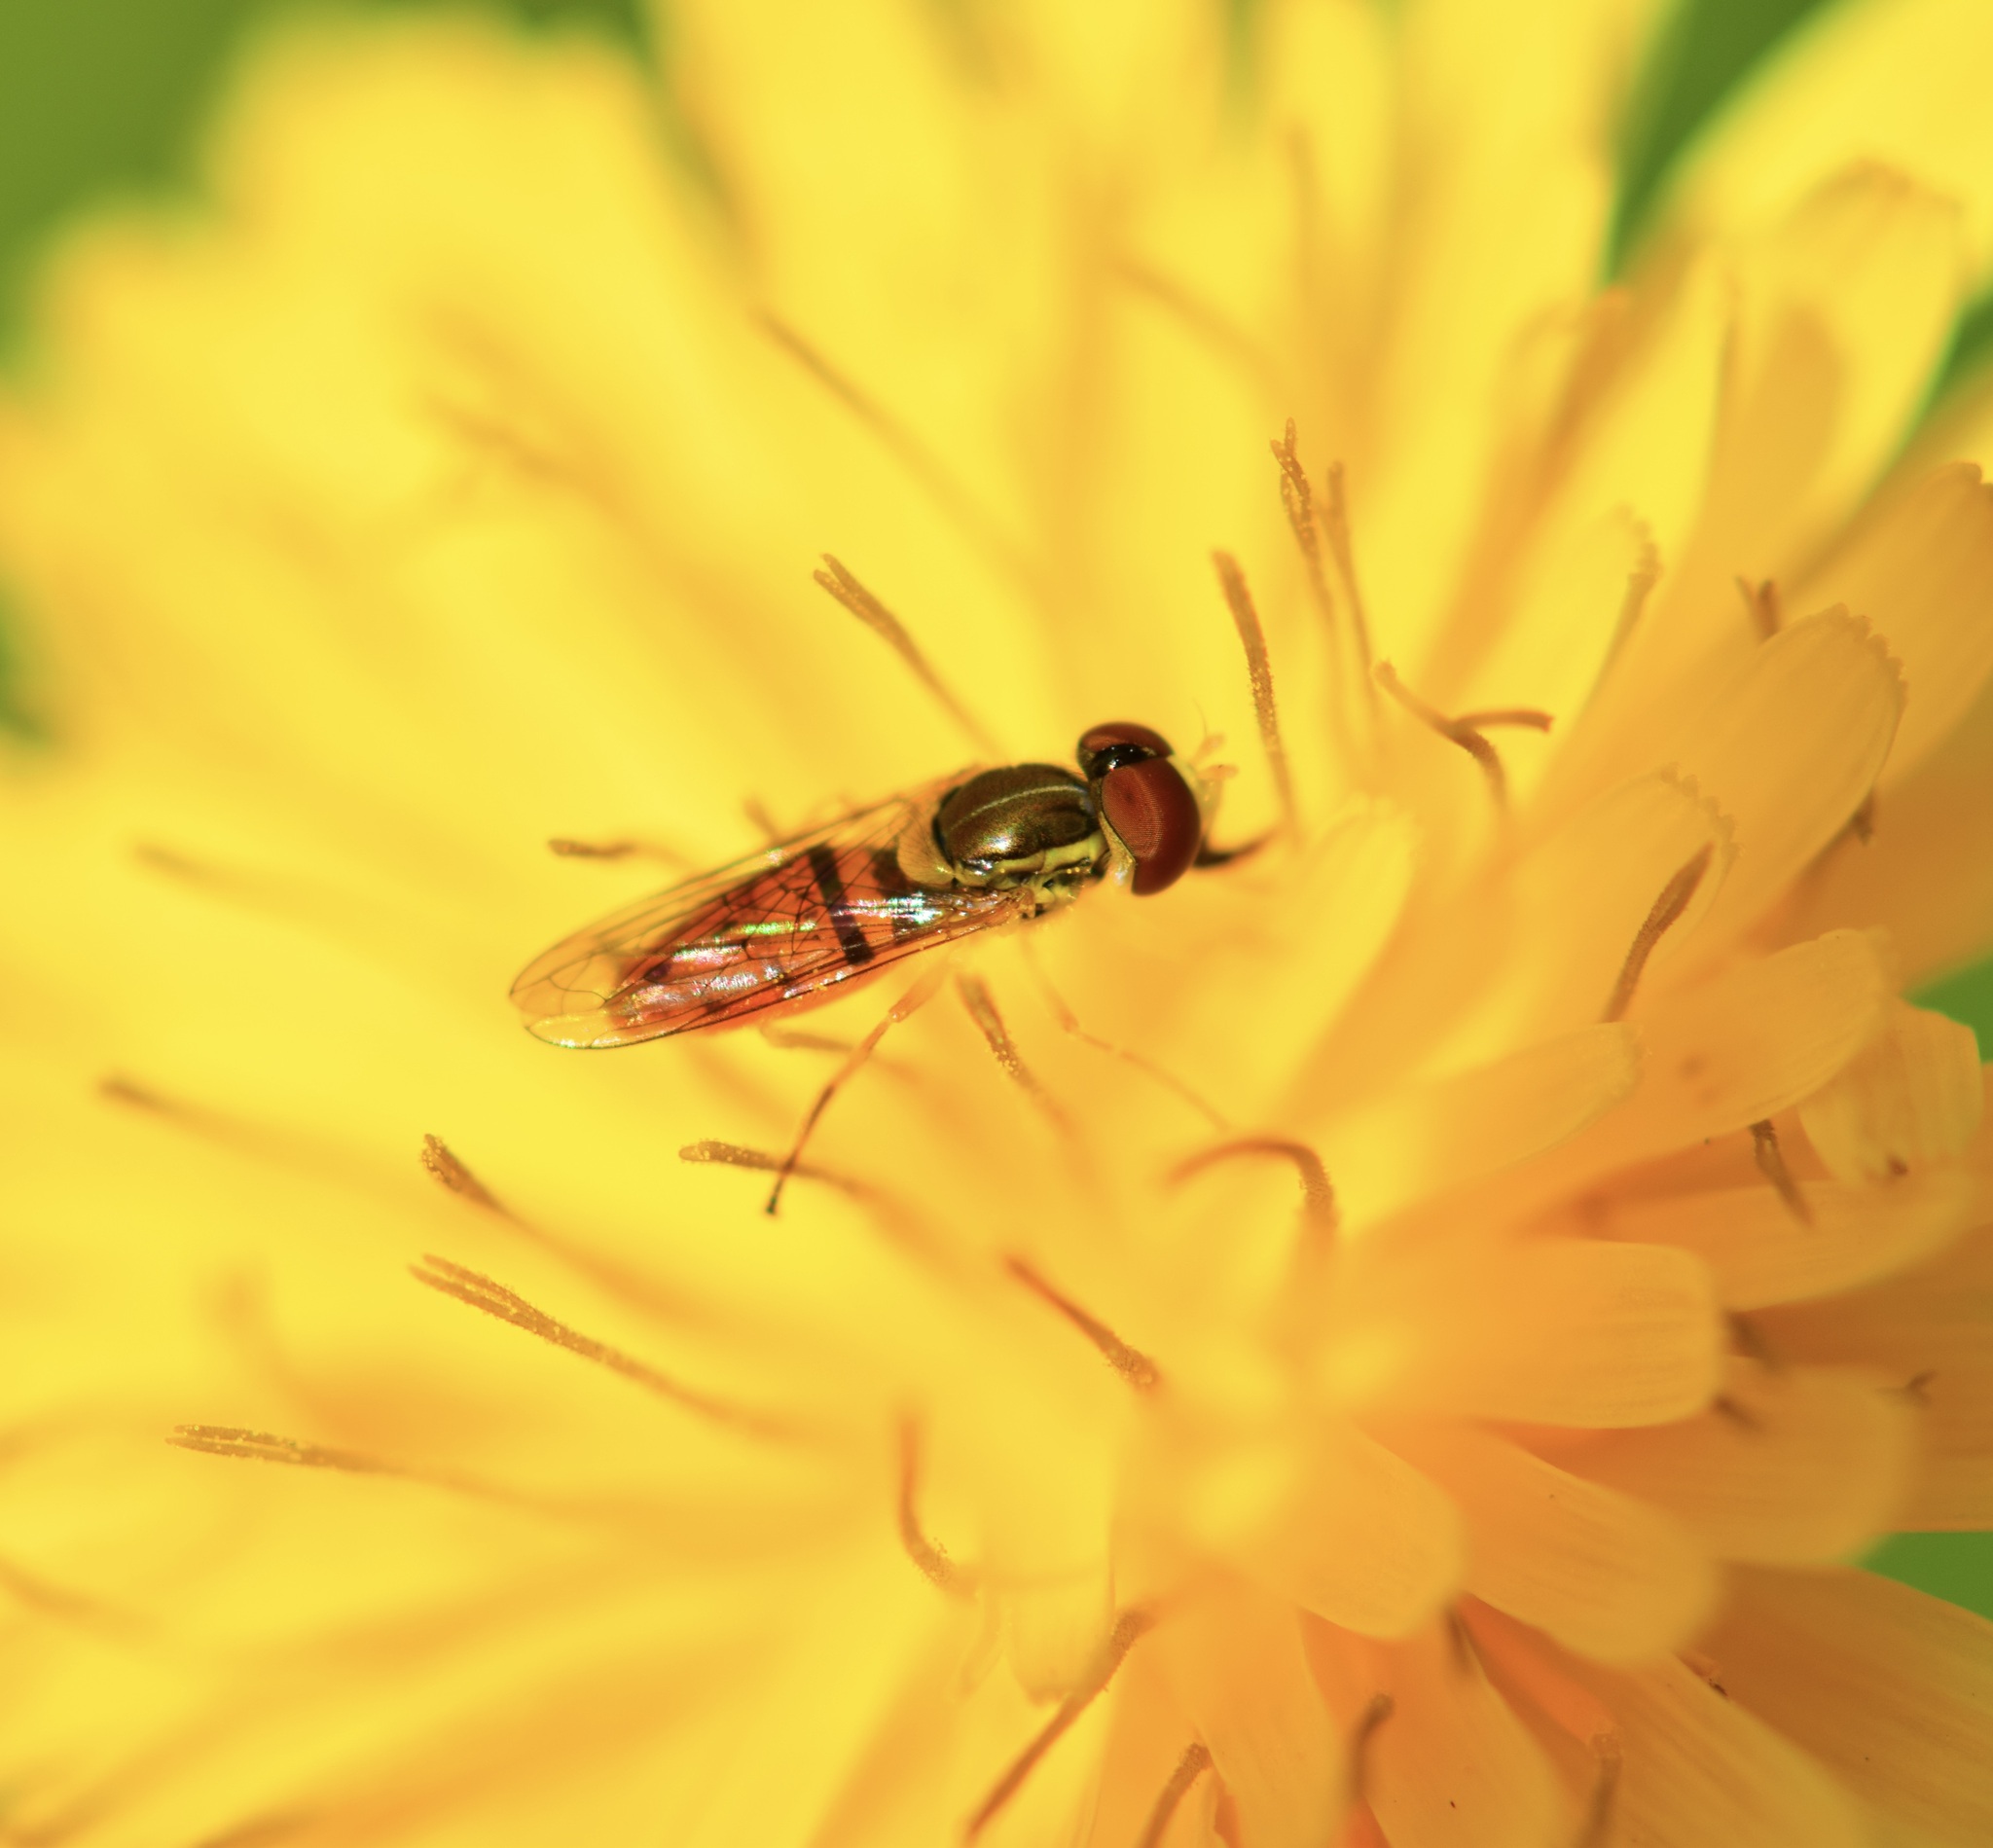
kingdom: Animalia
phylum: Arthropoda
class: Insecta
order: Diptera
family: Syrphidae
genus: Toxomerus
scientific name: Toxomerus marginatus
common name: Syrphid fly
